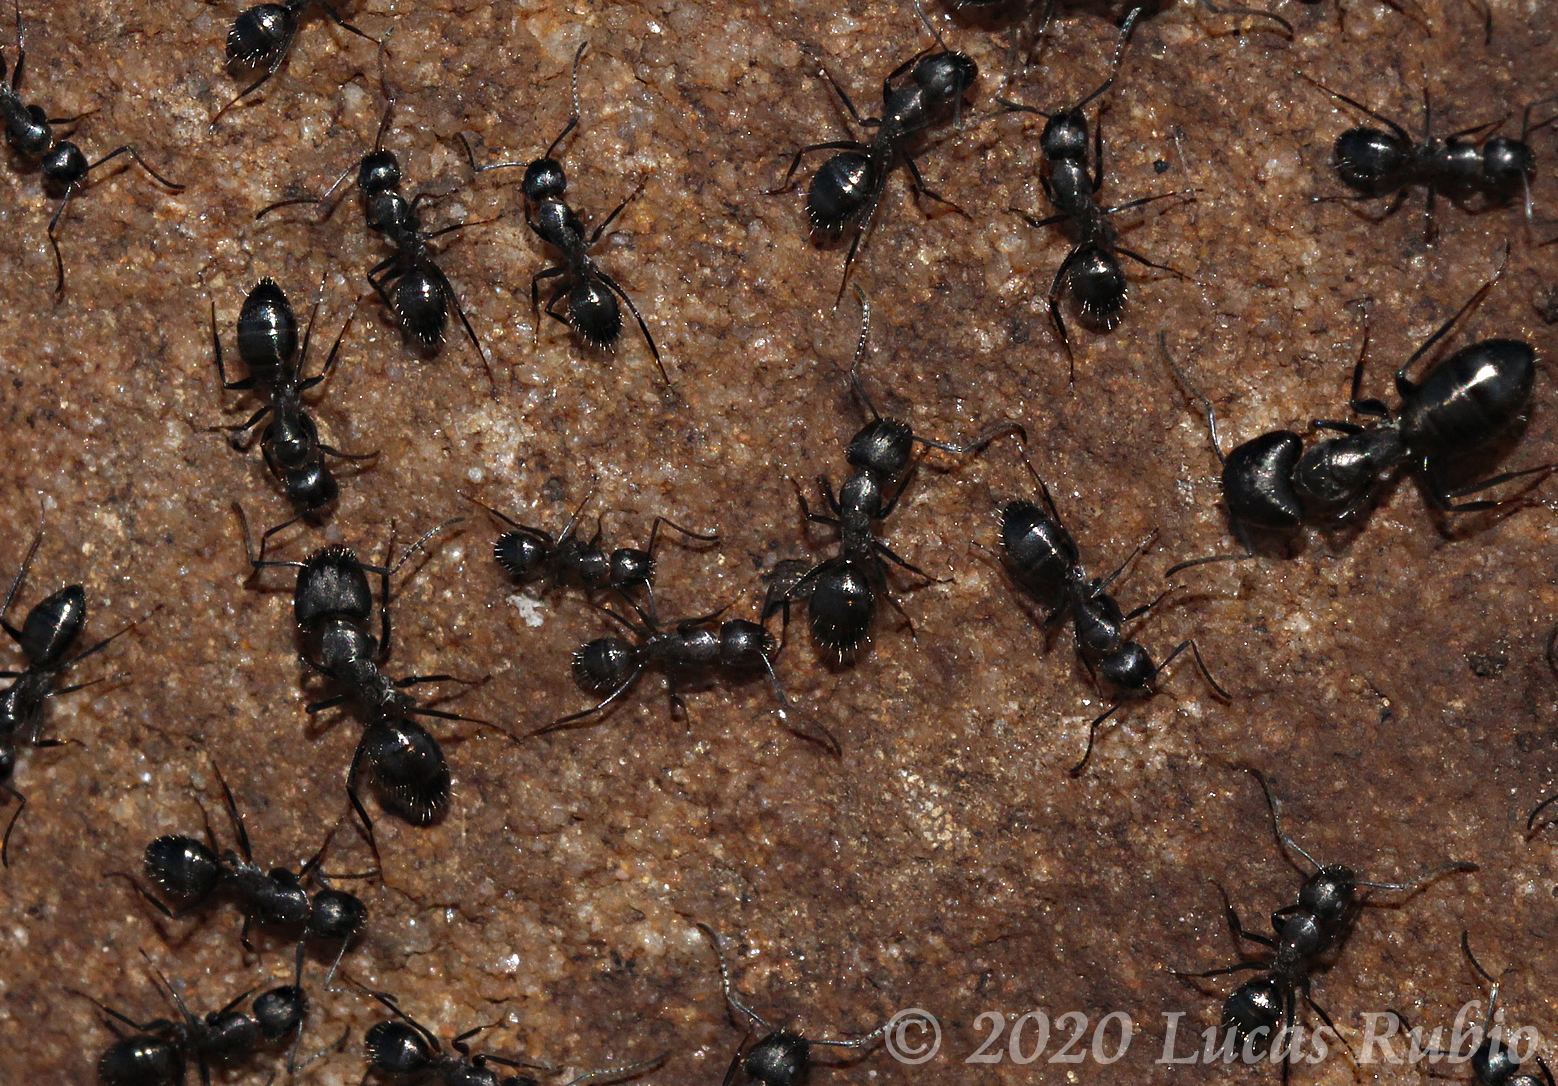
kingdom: Animalia
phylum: Arthropoda
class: Insecta
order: Hymenoptera
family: Formicidae
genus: Camponotus
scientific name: Camponotus punctulatus
